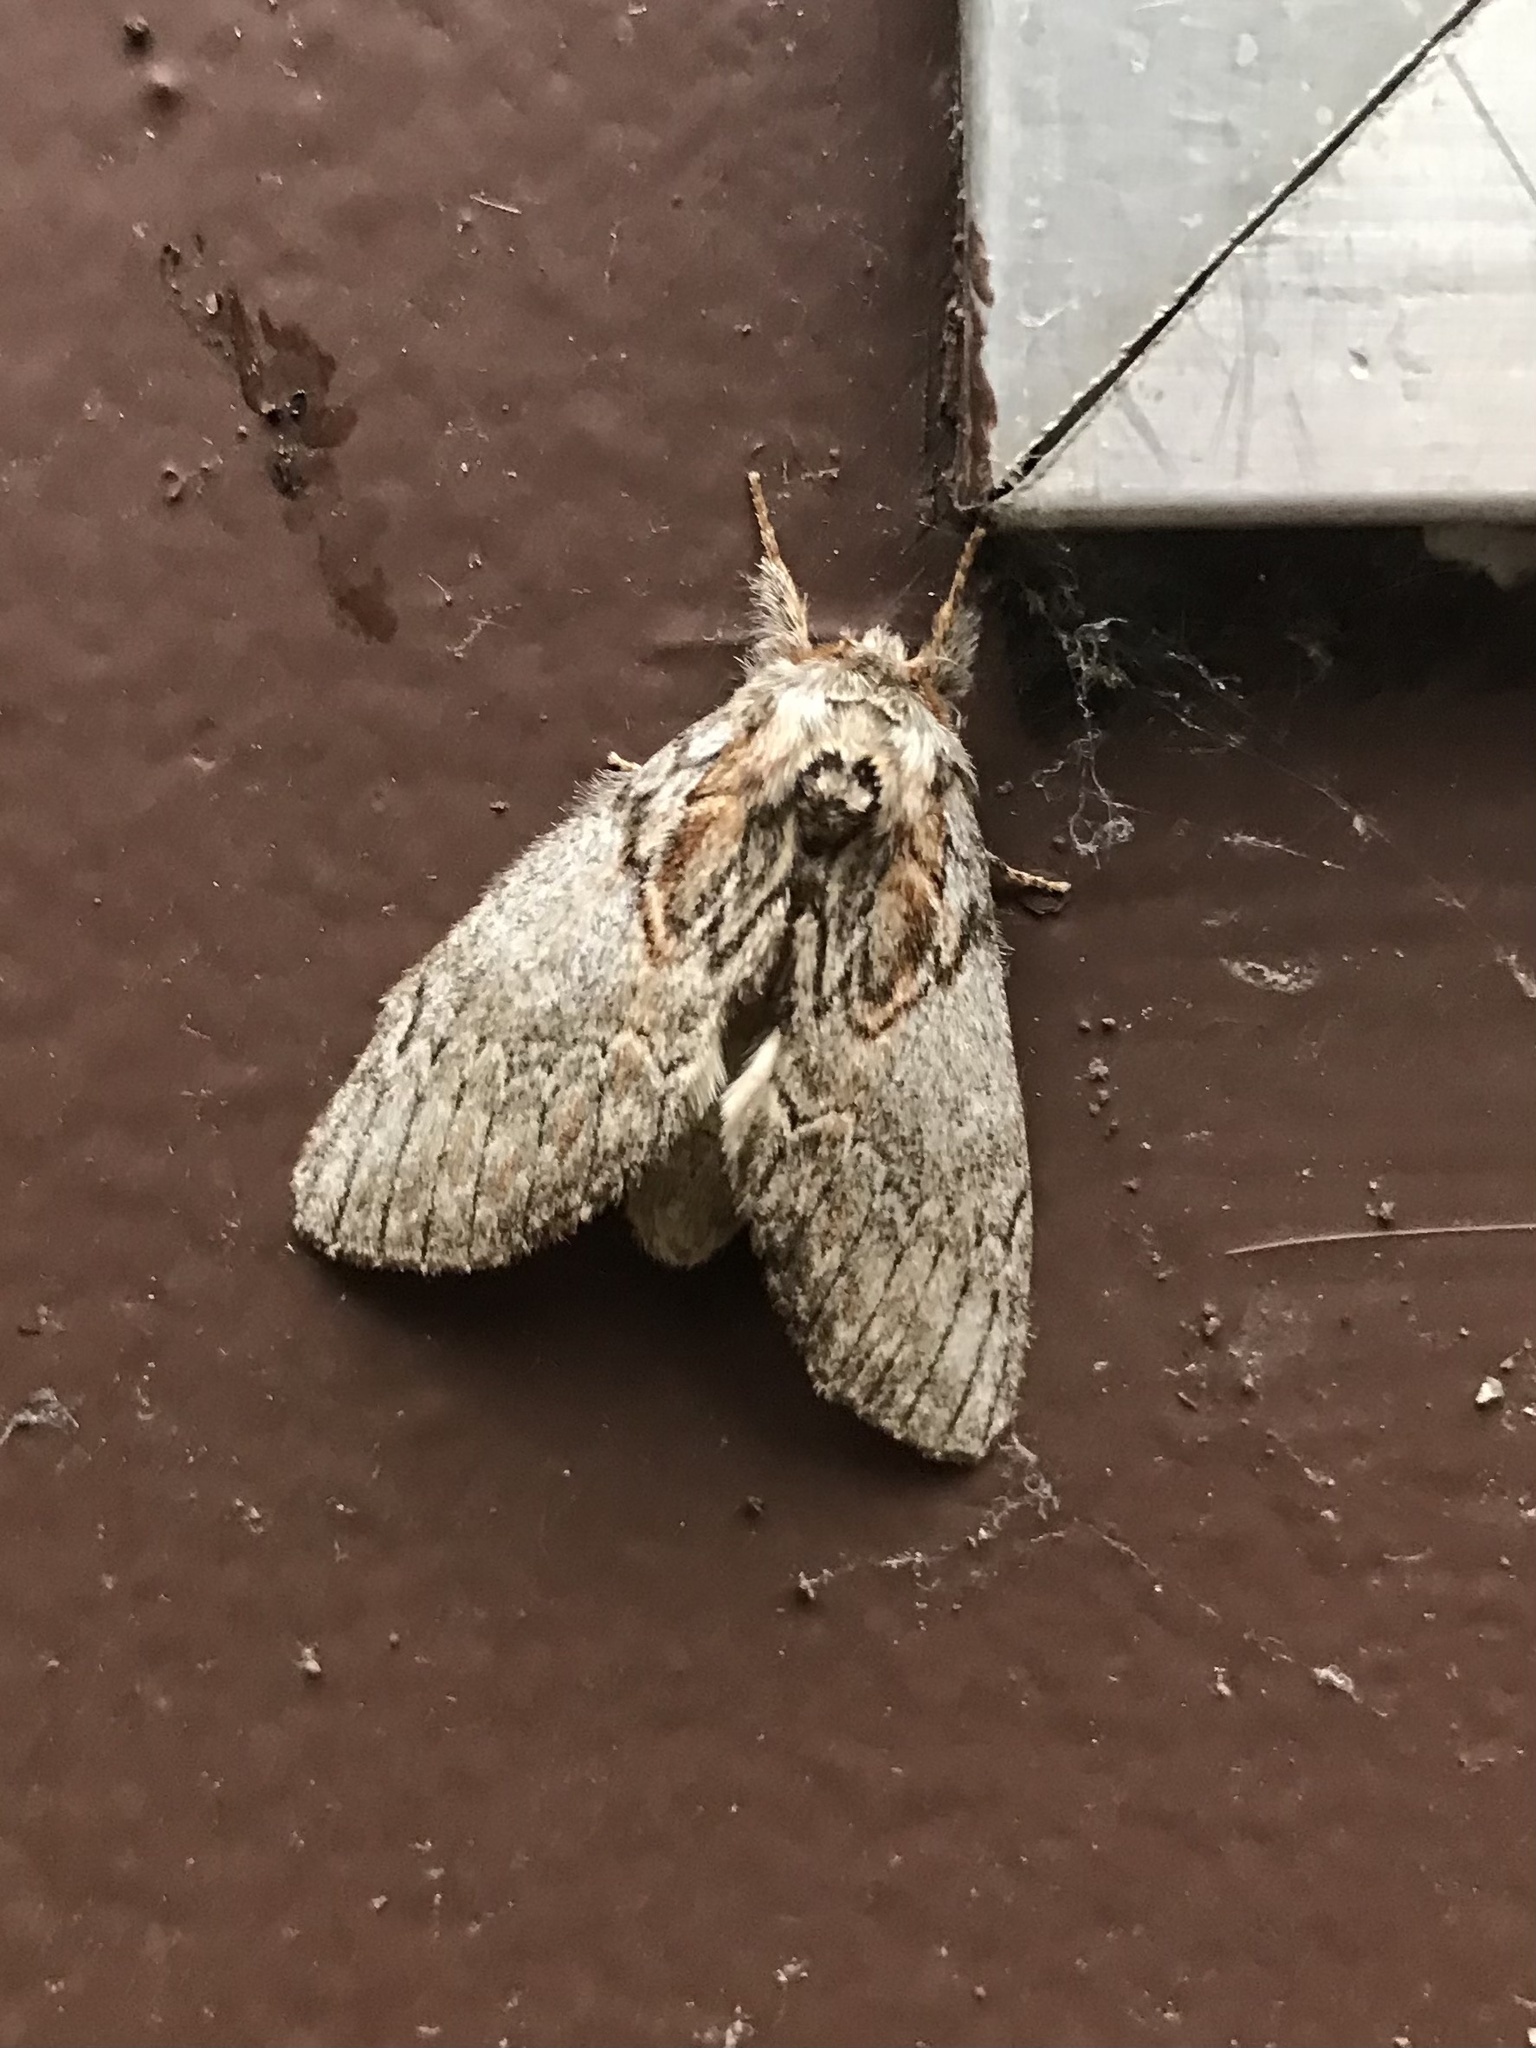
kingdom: Animalia
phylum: Arthropoda
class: Insecta
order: Lepidoptera
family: Notodontidae
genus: Peridea
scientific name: Peridea basitriens
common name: Oval-based prominent
